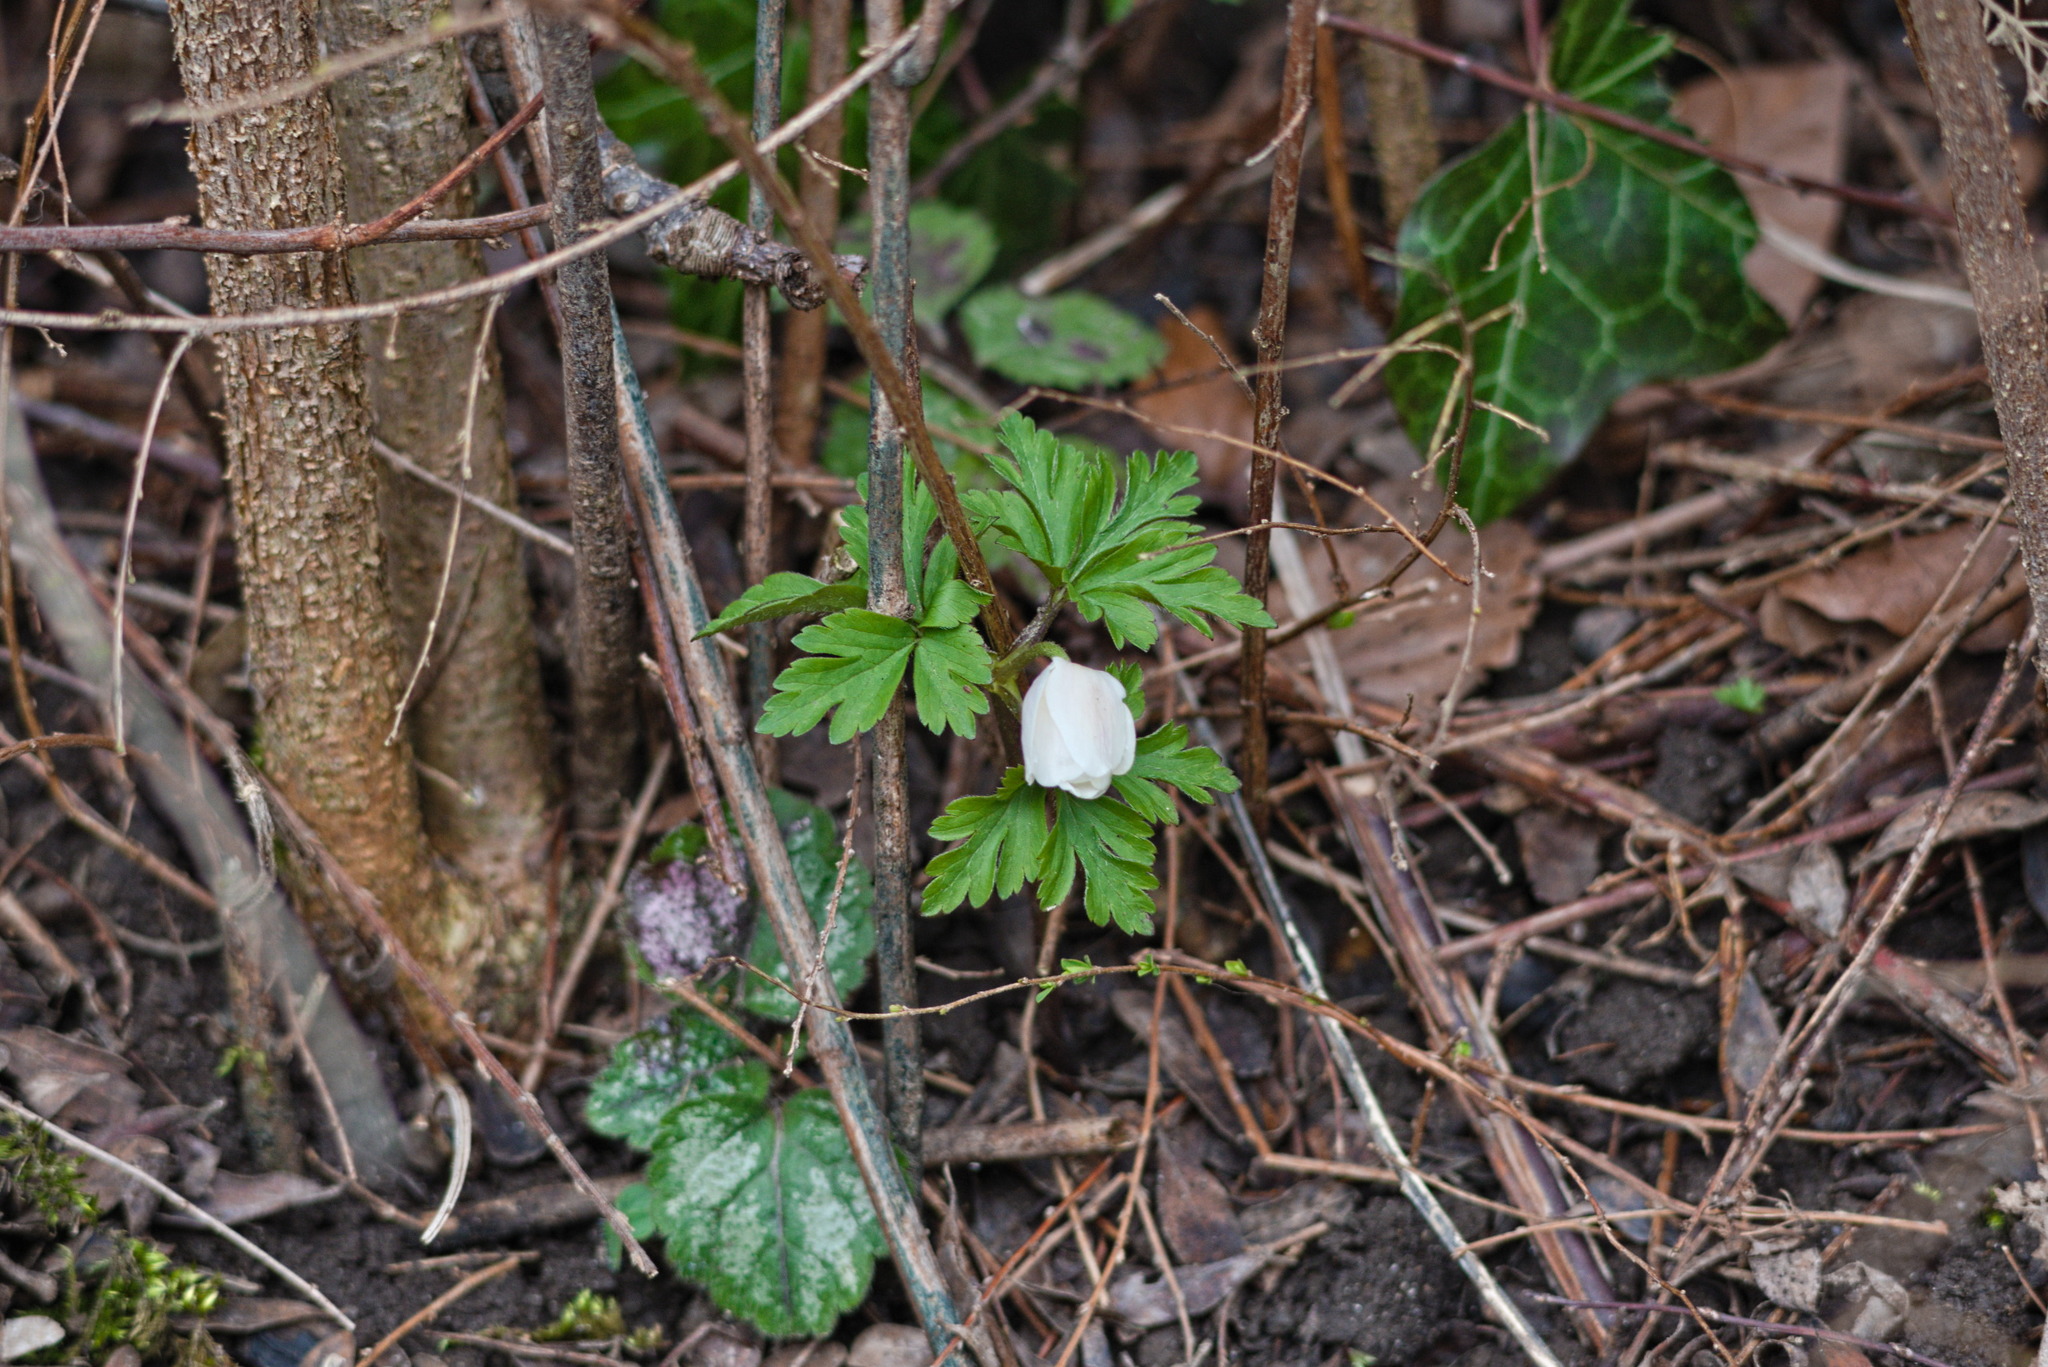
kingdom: Plantae
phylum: Tracheophyta
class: Magnoliopsida
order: Ranunculales
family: Ranunculaceae
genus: Anemone
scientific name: Anemone nemorosa
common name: Wood anemone
